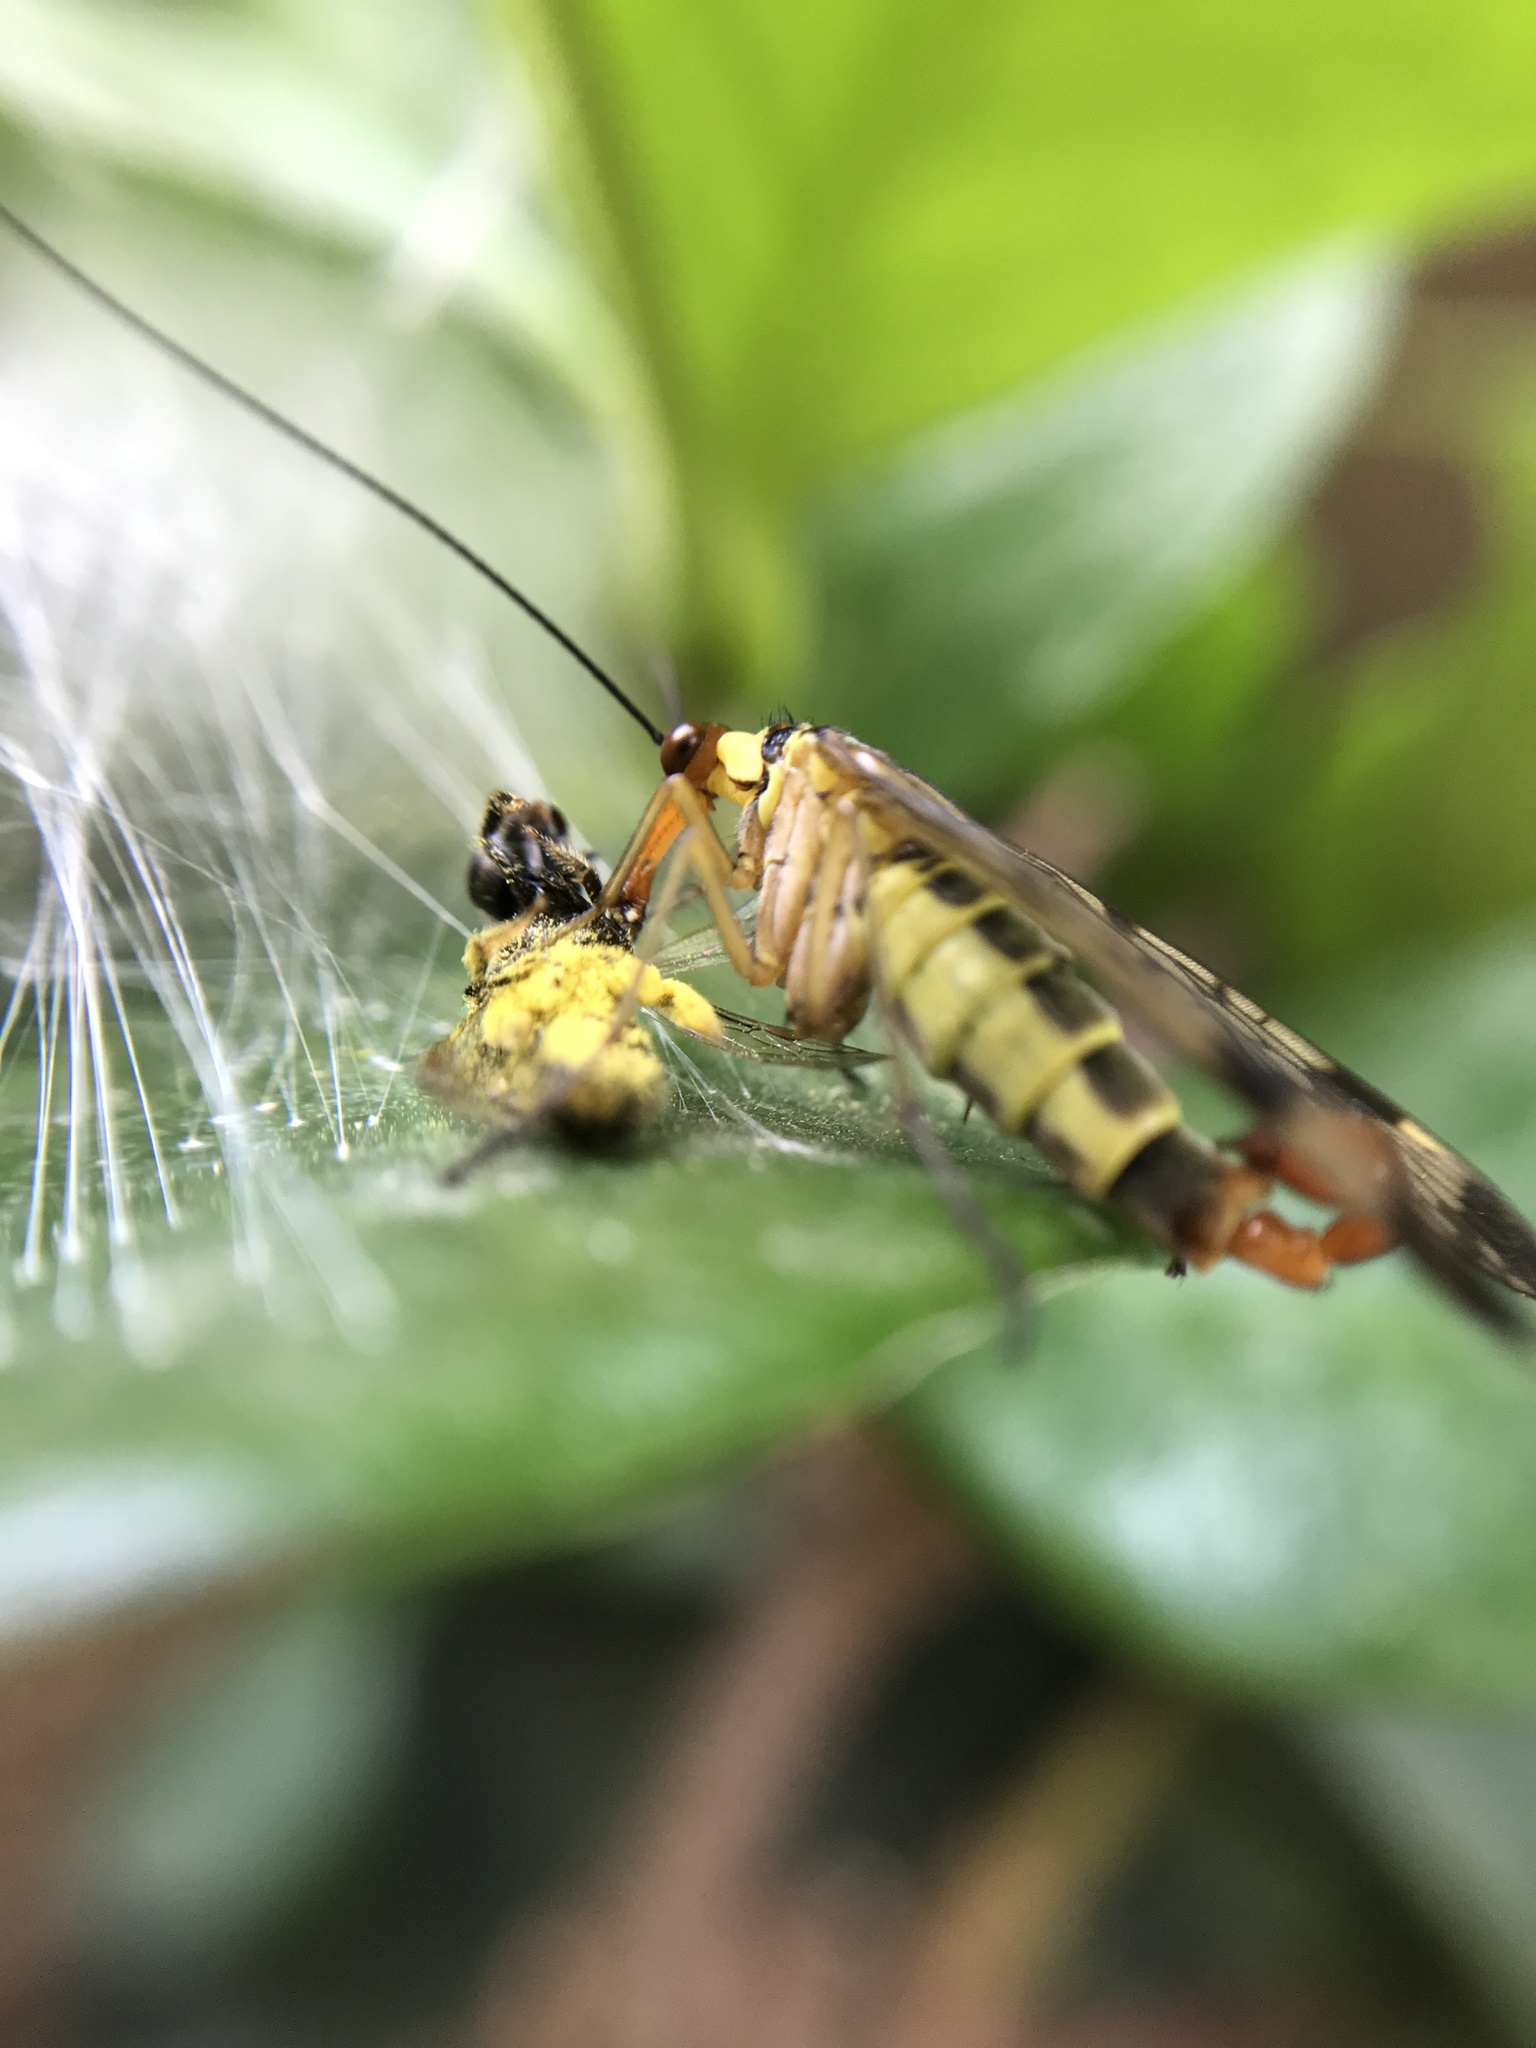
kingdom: Animalia
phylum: Arthropoda
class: Insecta
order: Mecoptera
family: Panorpidae
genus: Panorpa
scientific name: Panorpa communis
